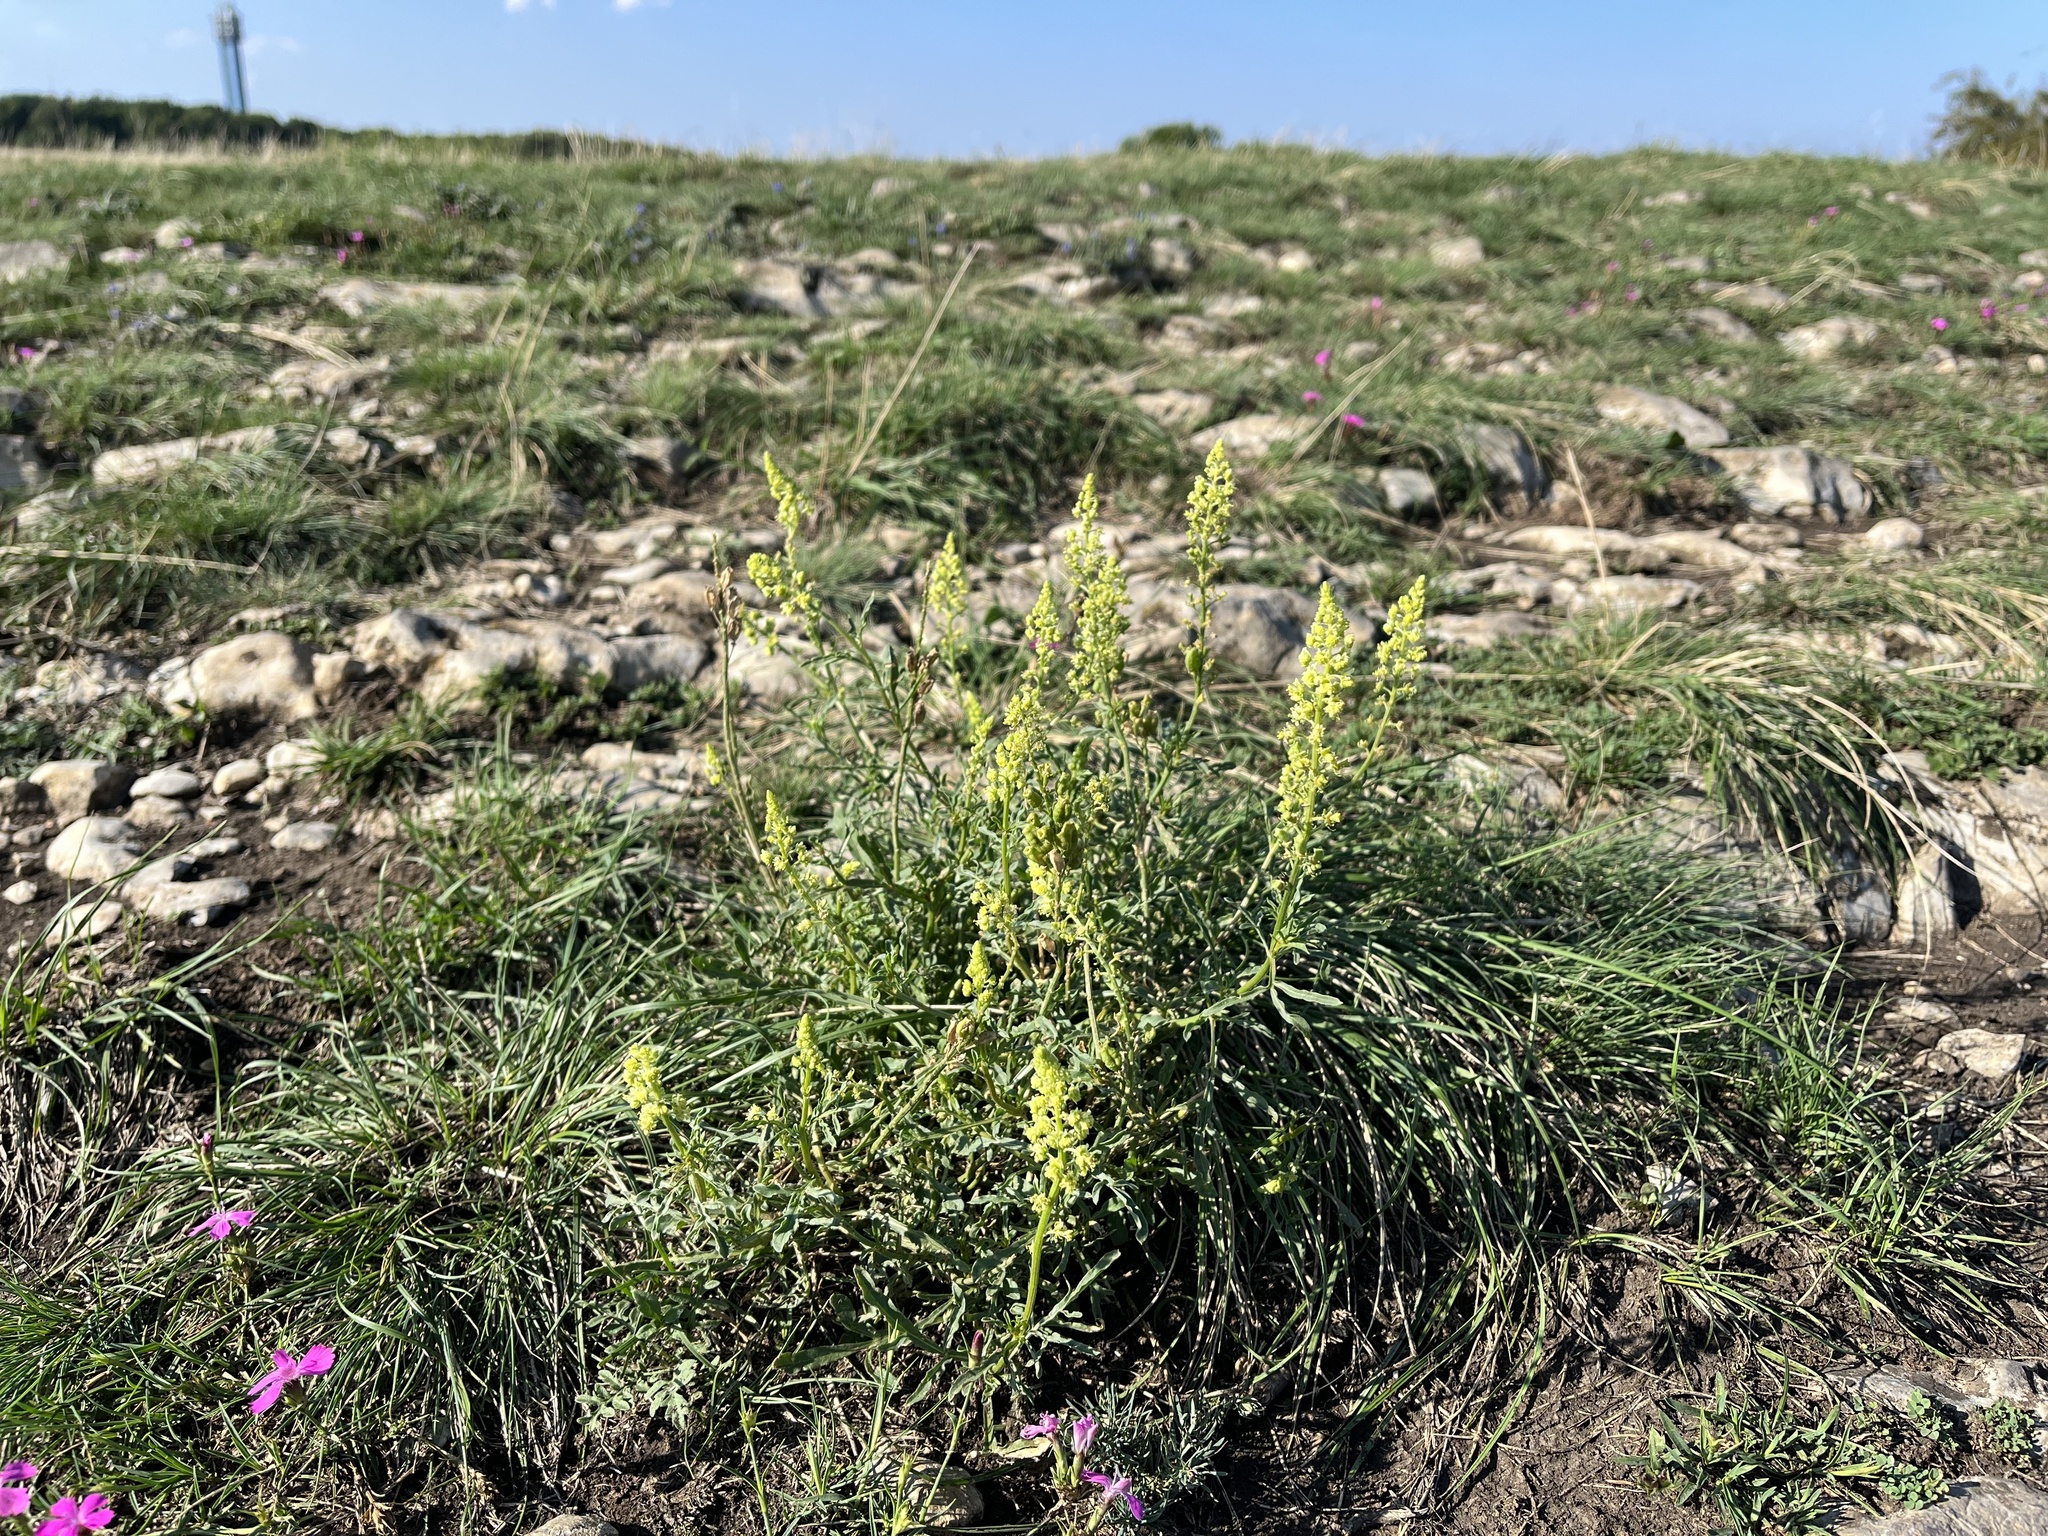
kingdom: Plantae
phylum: Tracheophyta
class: Magnoliopsida
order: Brassicales
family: Resedaceae
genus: Reseda
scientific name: Reseda lutea
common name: Wild mignonette
